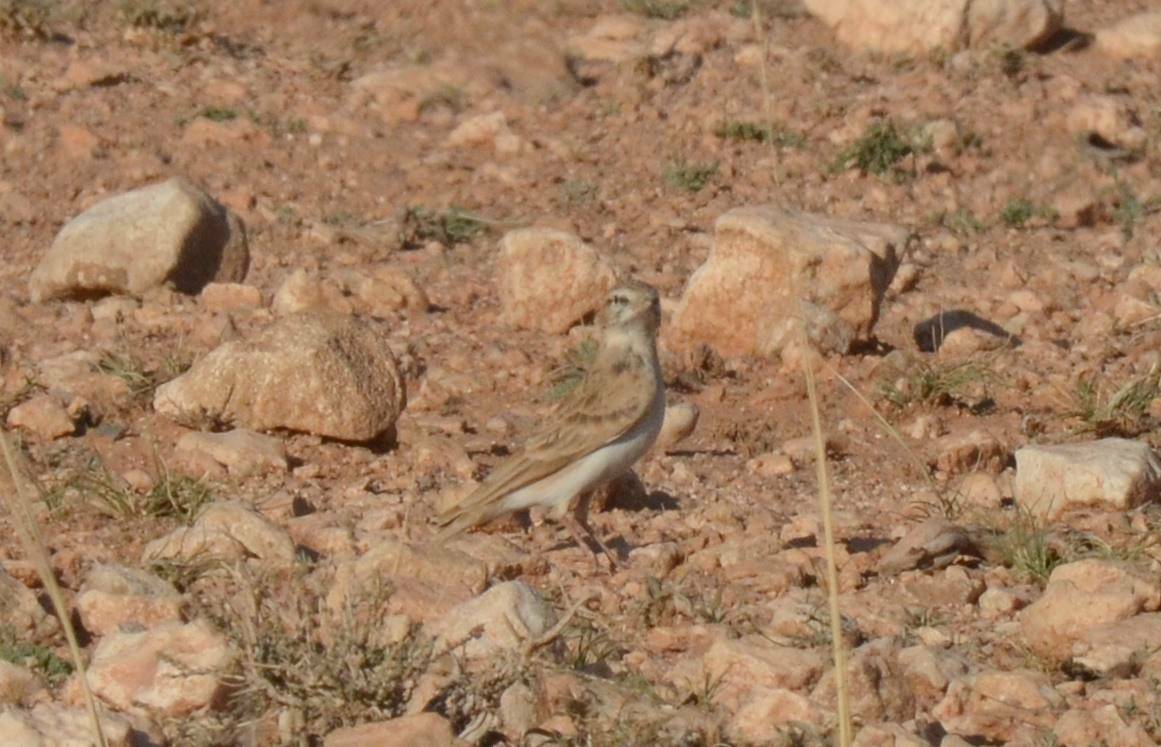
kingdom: Animalia
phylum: Chordata
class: Aves
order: Passeriformes
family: Alaudidae
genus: Calandrella
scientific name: Calandrella brachydactyla
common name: Greater short-toed lark
